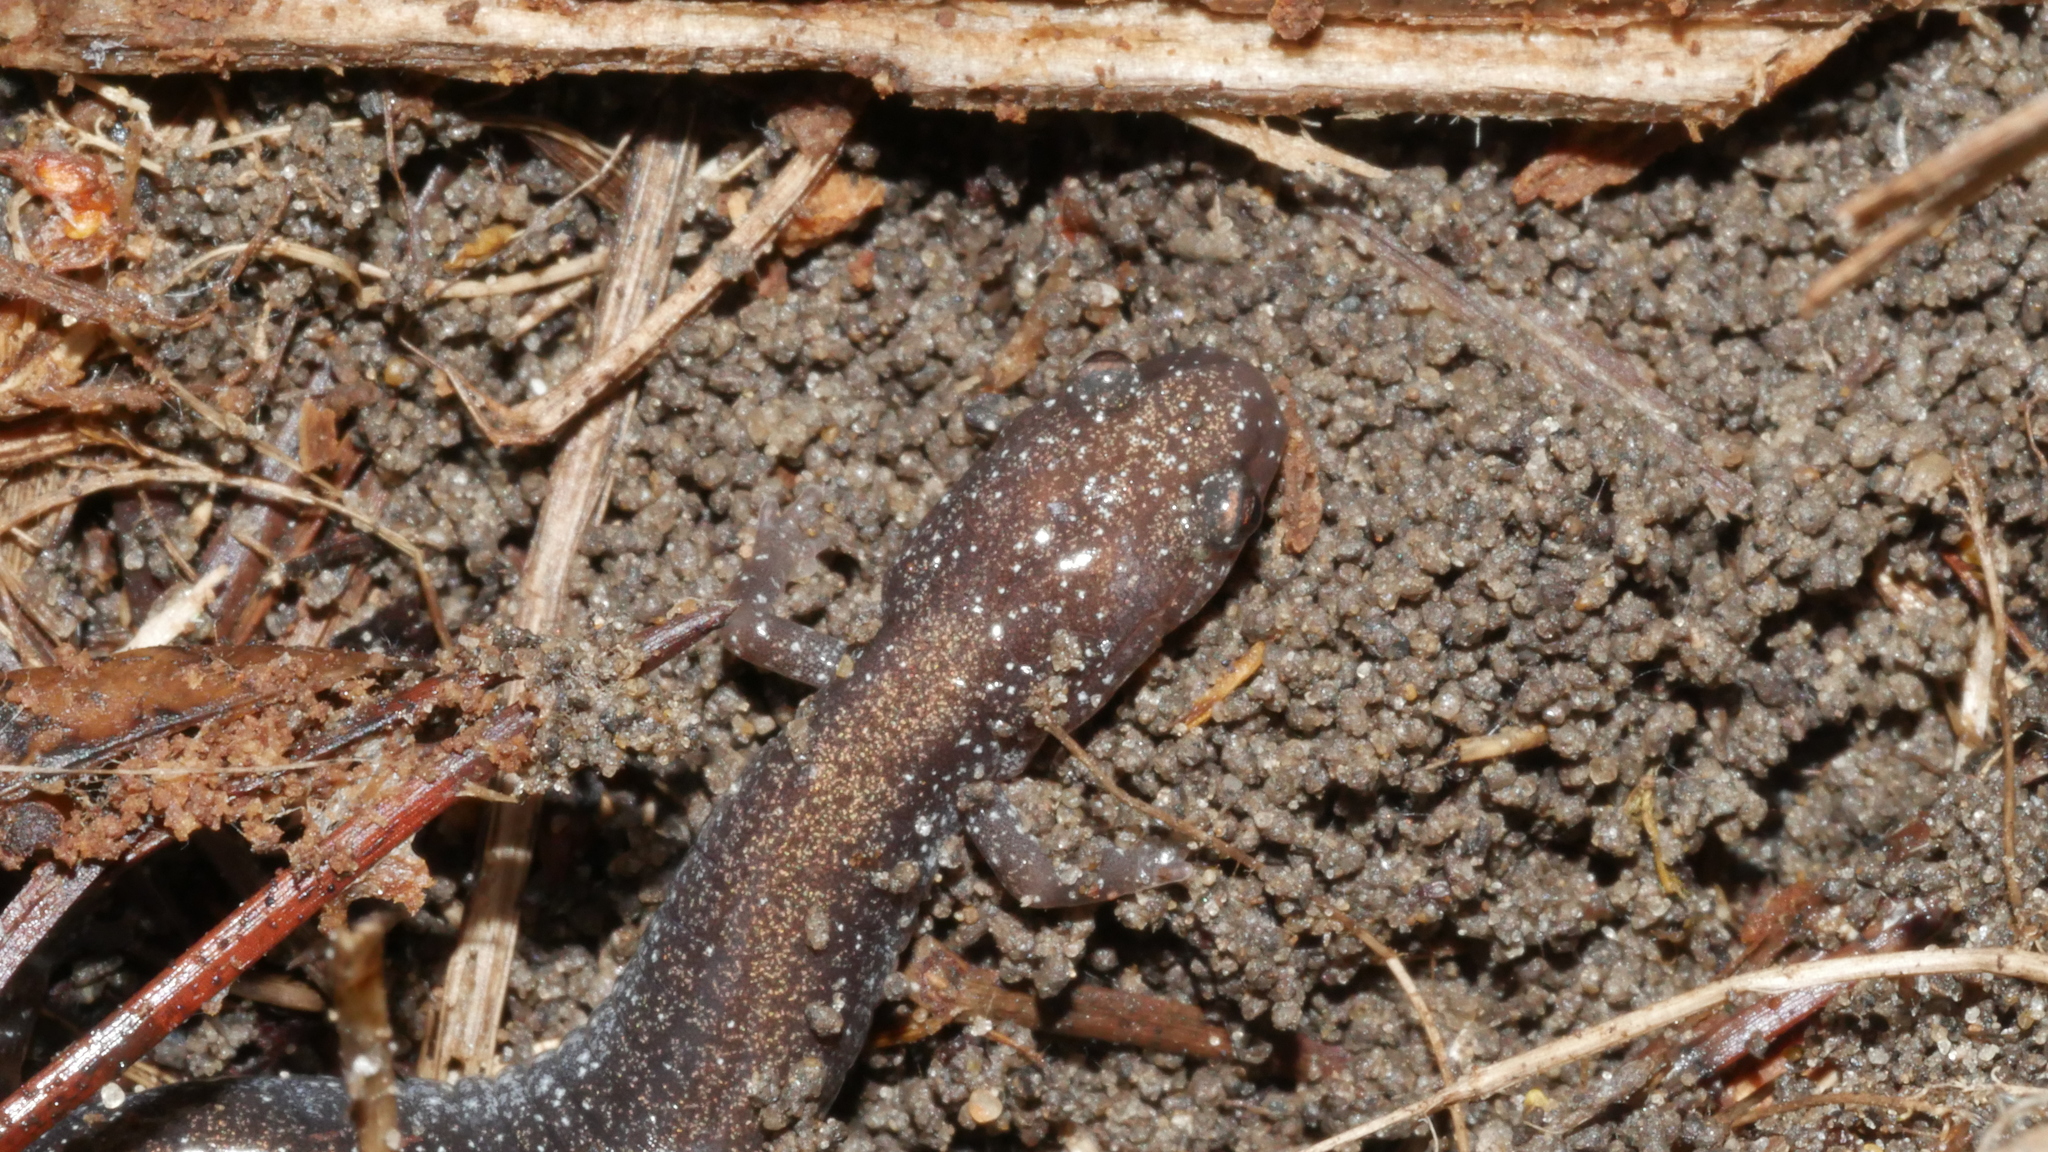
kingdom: Animalia
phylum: Chordata
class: Amphibia
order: Caudata
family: Plethodontidae
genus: Plethodon
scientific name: Plethodon cinereus
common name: Redback salamander
